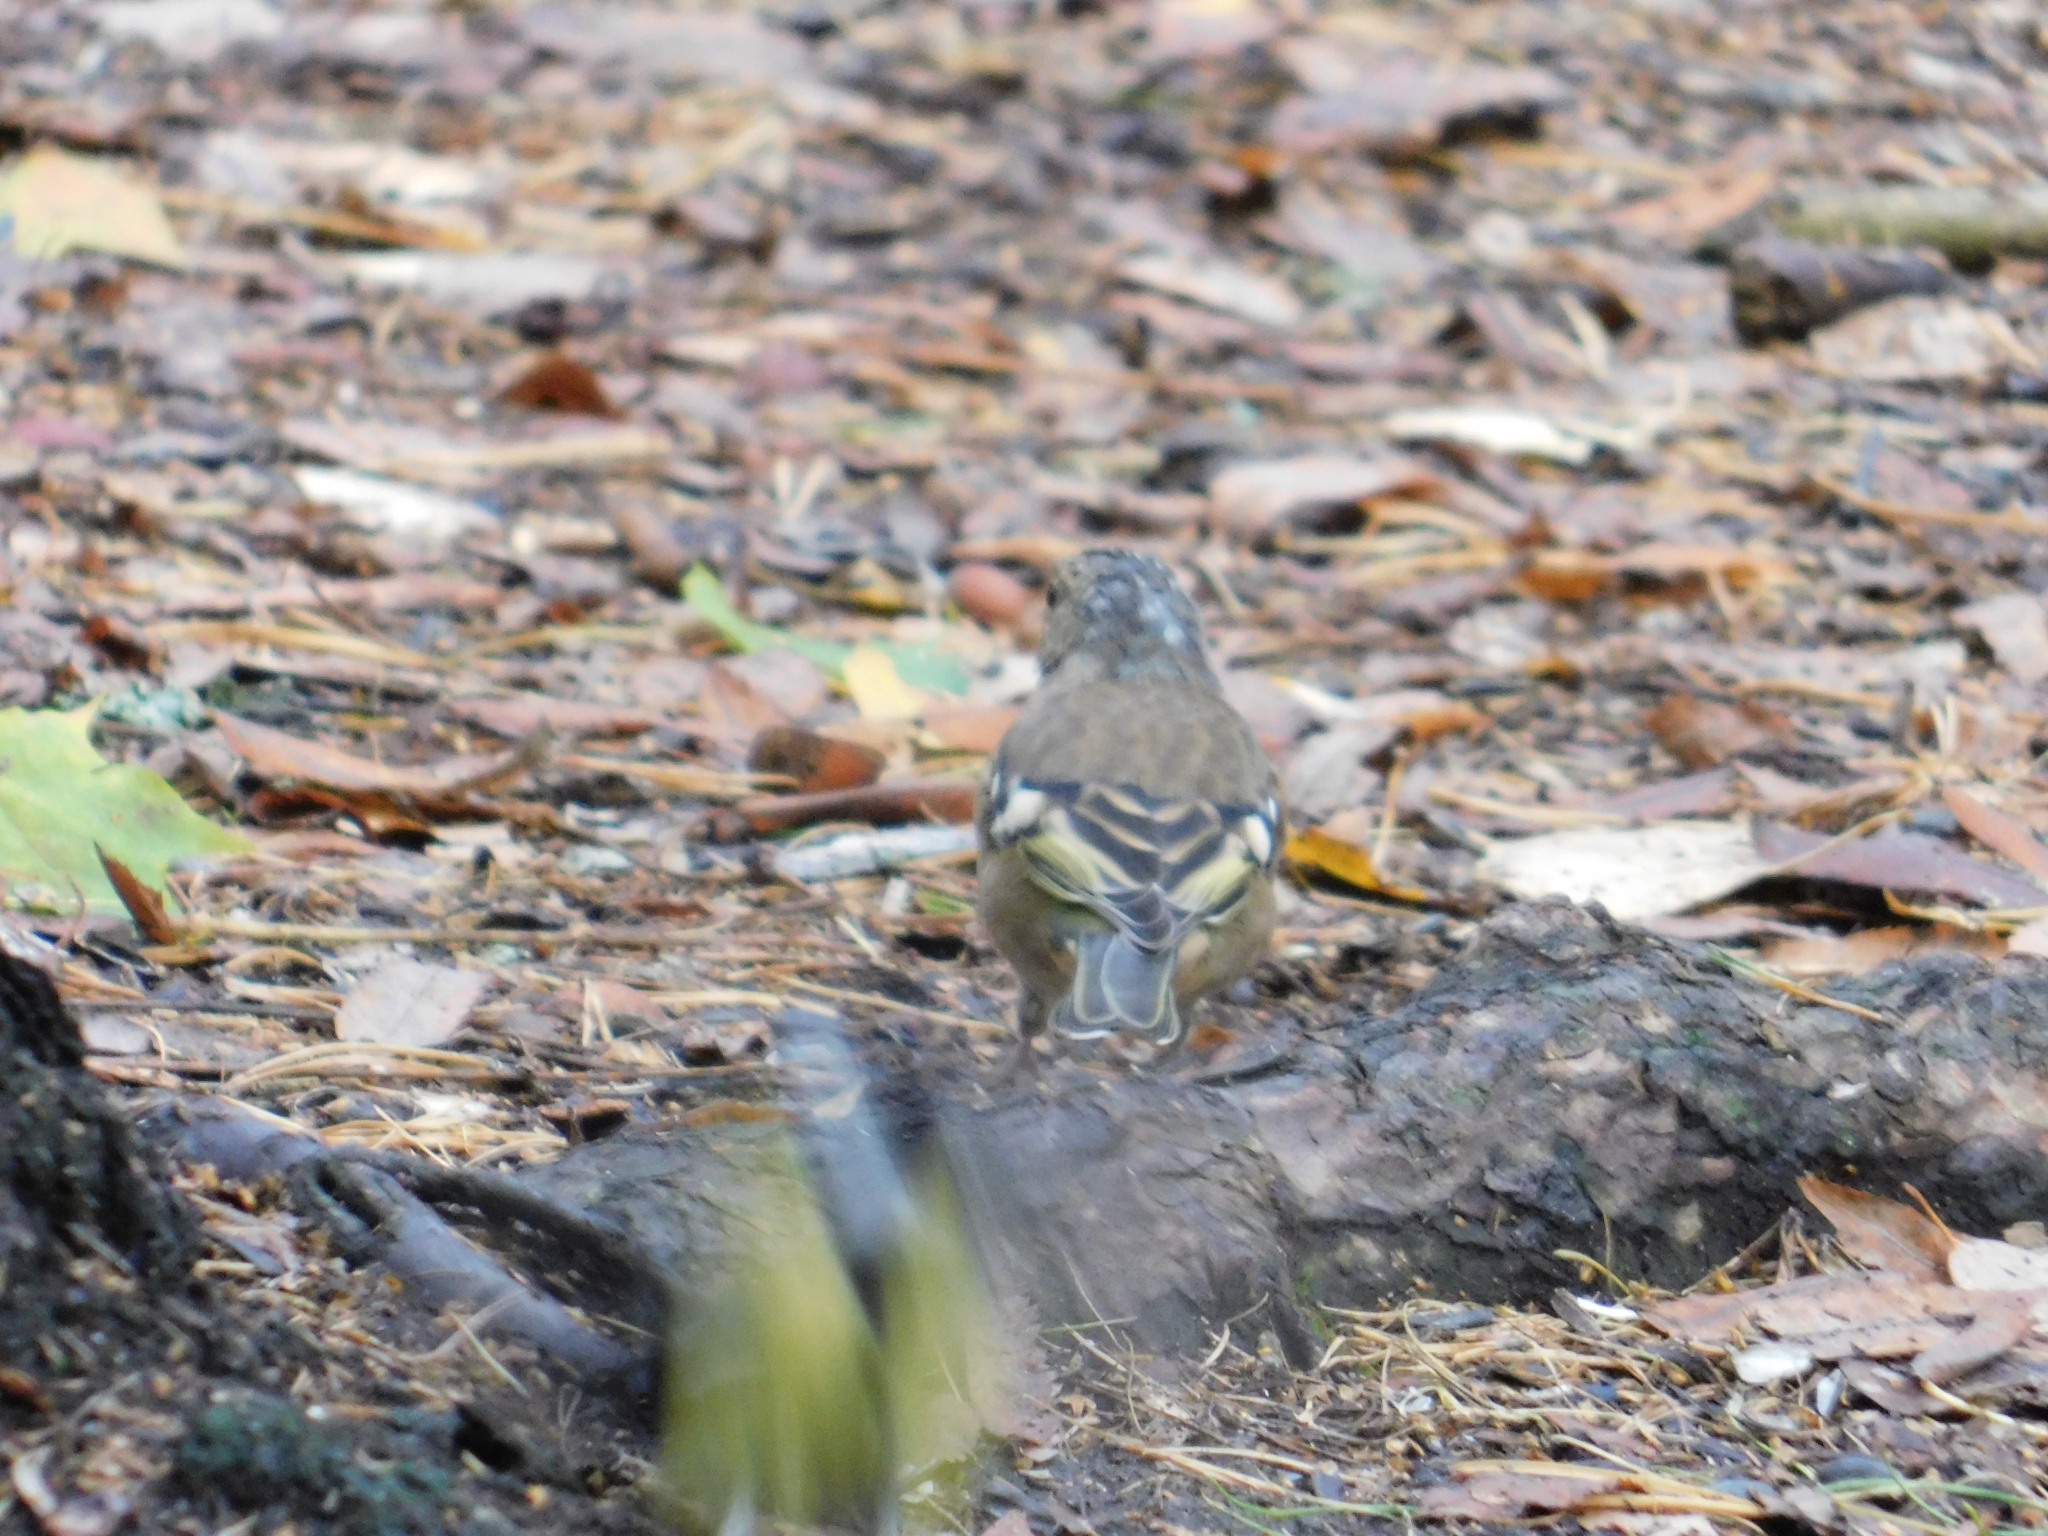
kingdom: Animalia
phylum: Chordata
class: Aves
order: Passeriformes
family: Fringillidae
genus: Fringilla
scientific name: Fringilla coelebs
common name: Common chaffinch
